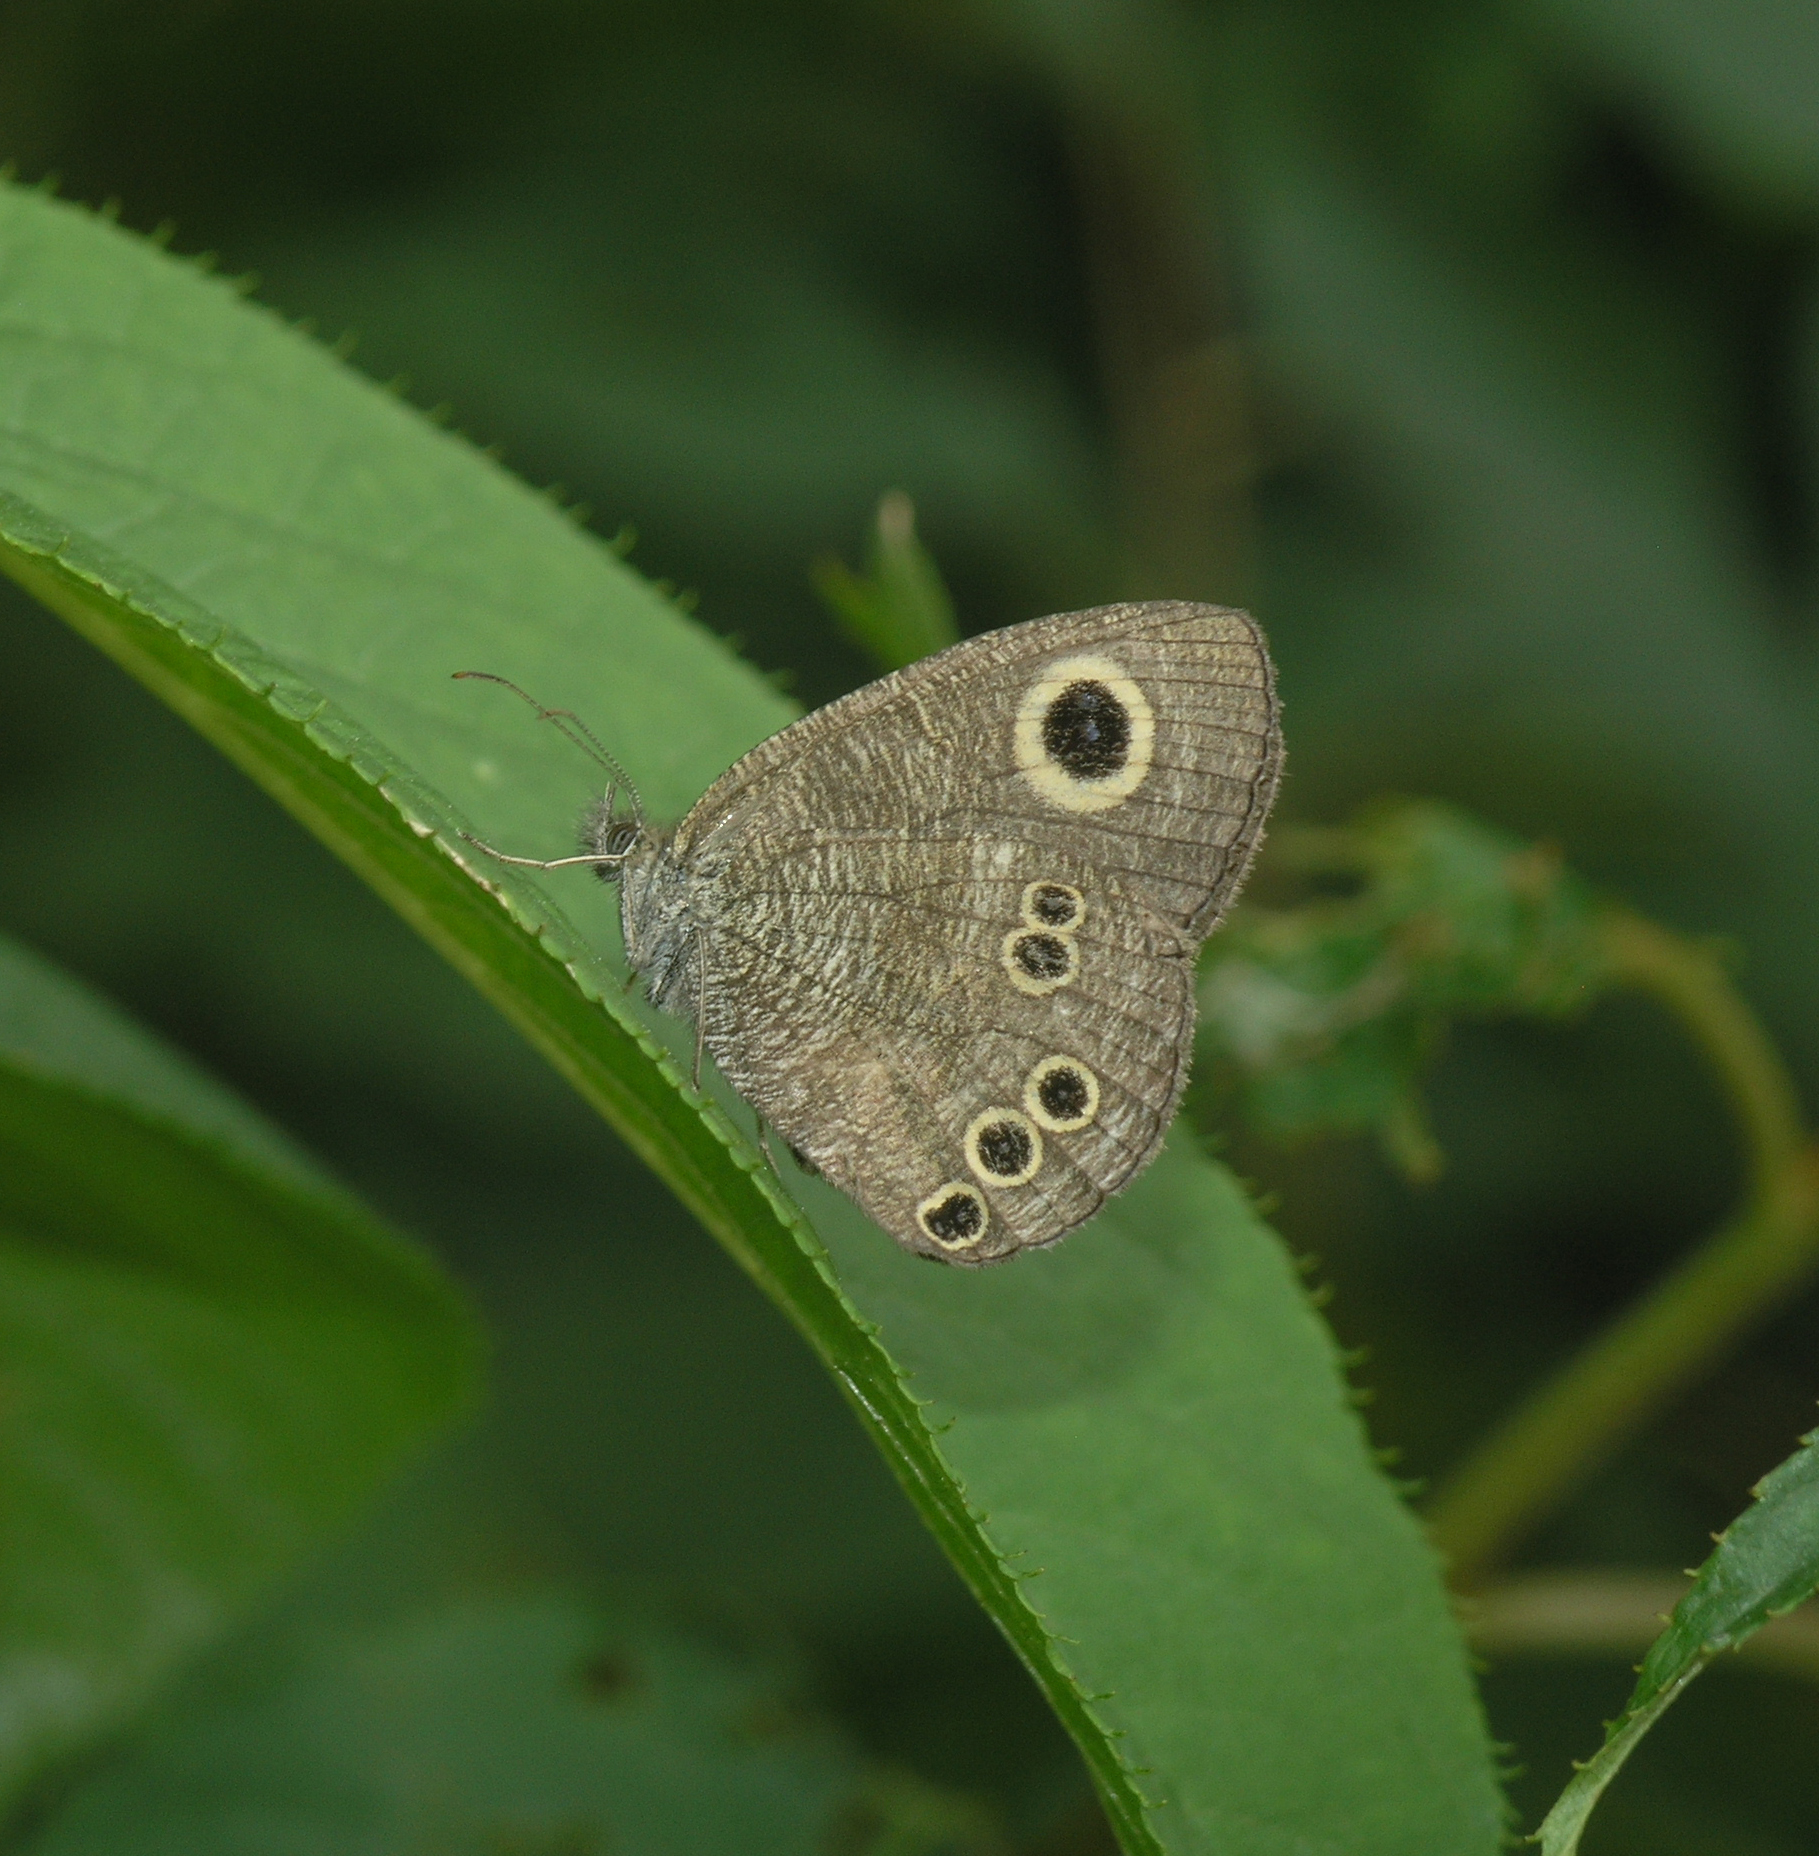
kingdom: Animalia
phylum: Arthropoda
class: Insecta
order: Lepidoptera
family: Nymphalidae
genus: Ypthima
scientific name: Ypthima argus
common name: Common fivering
